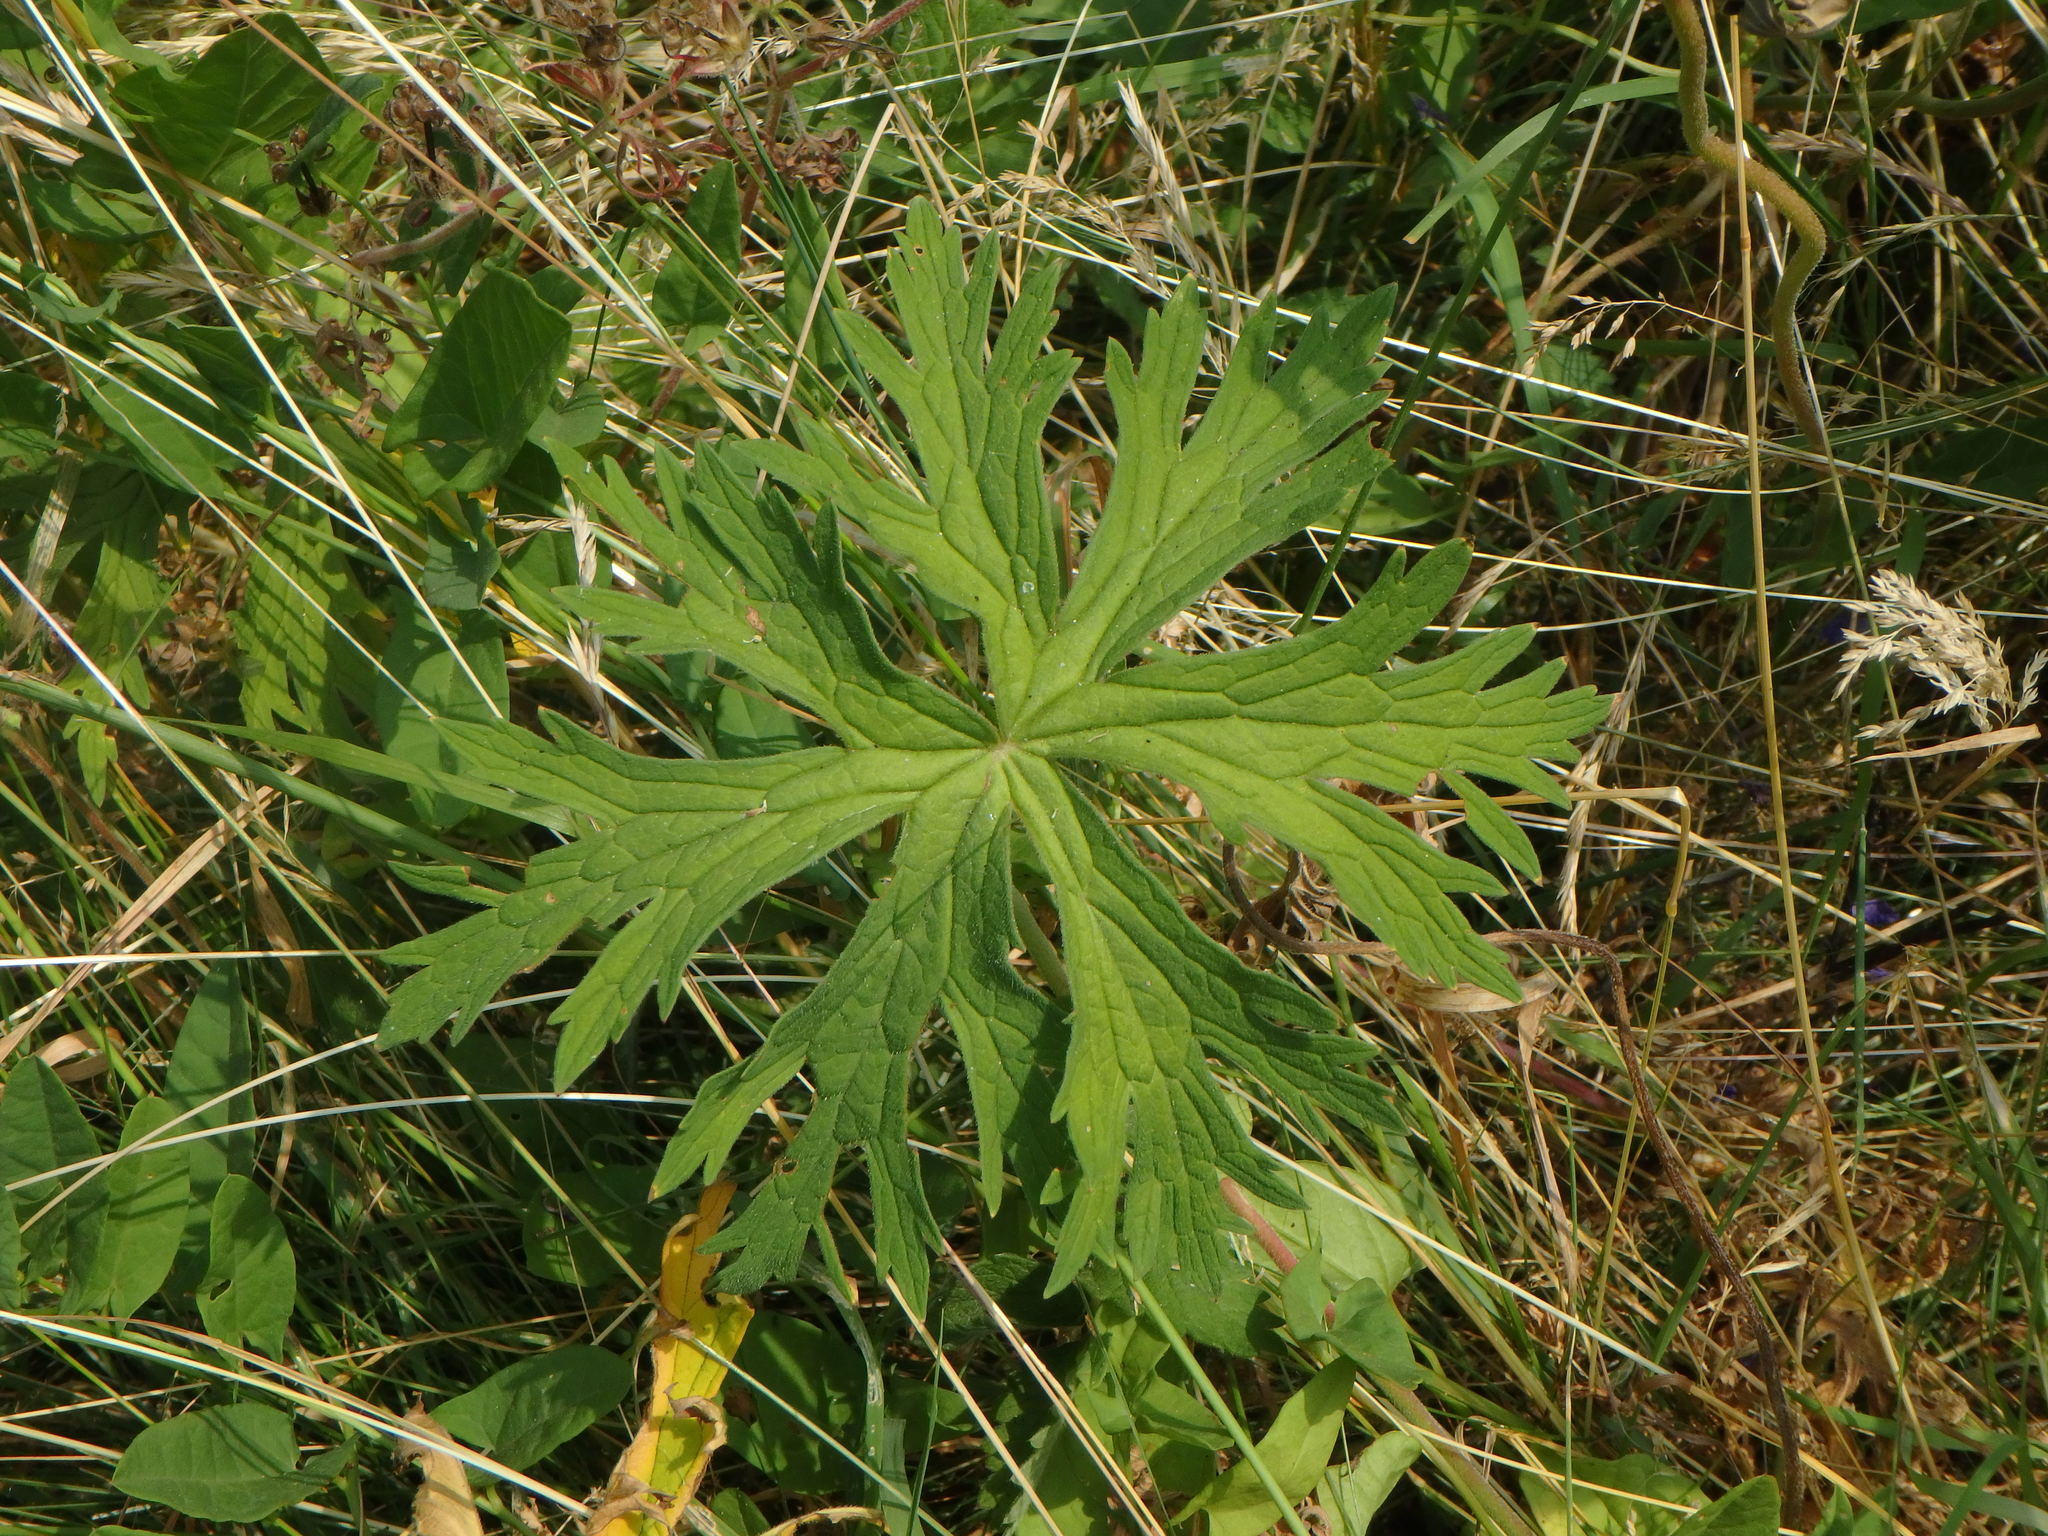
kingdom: Plantae
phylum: Tracheophyta
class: Magnoliopsida
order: Geraniales
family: Geraniaceae
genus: Geranium
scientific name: Geranium pratense
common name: Meadow crane's-bill
